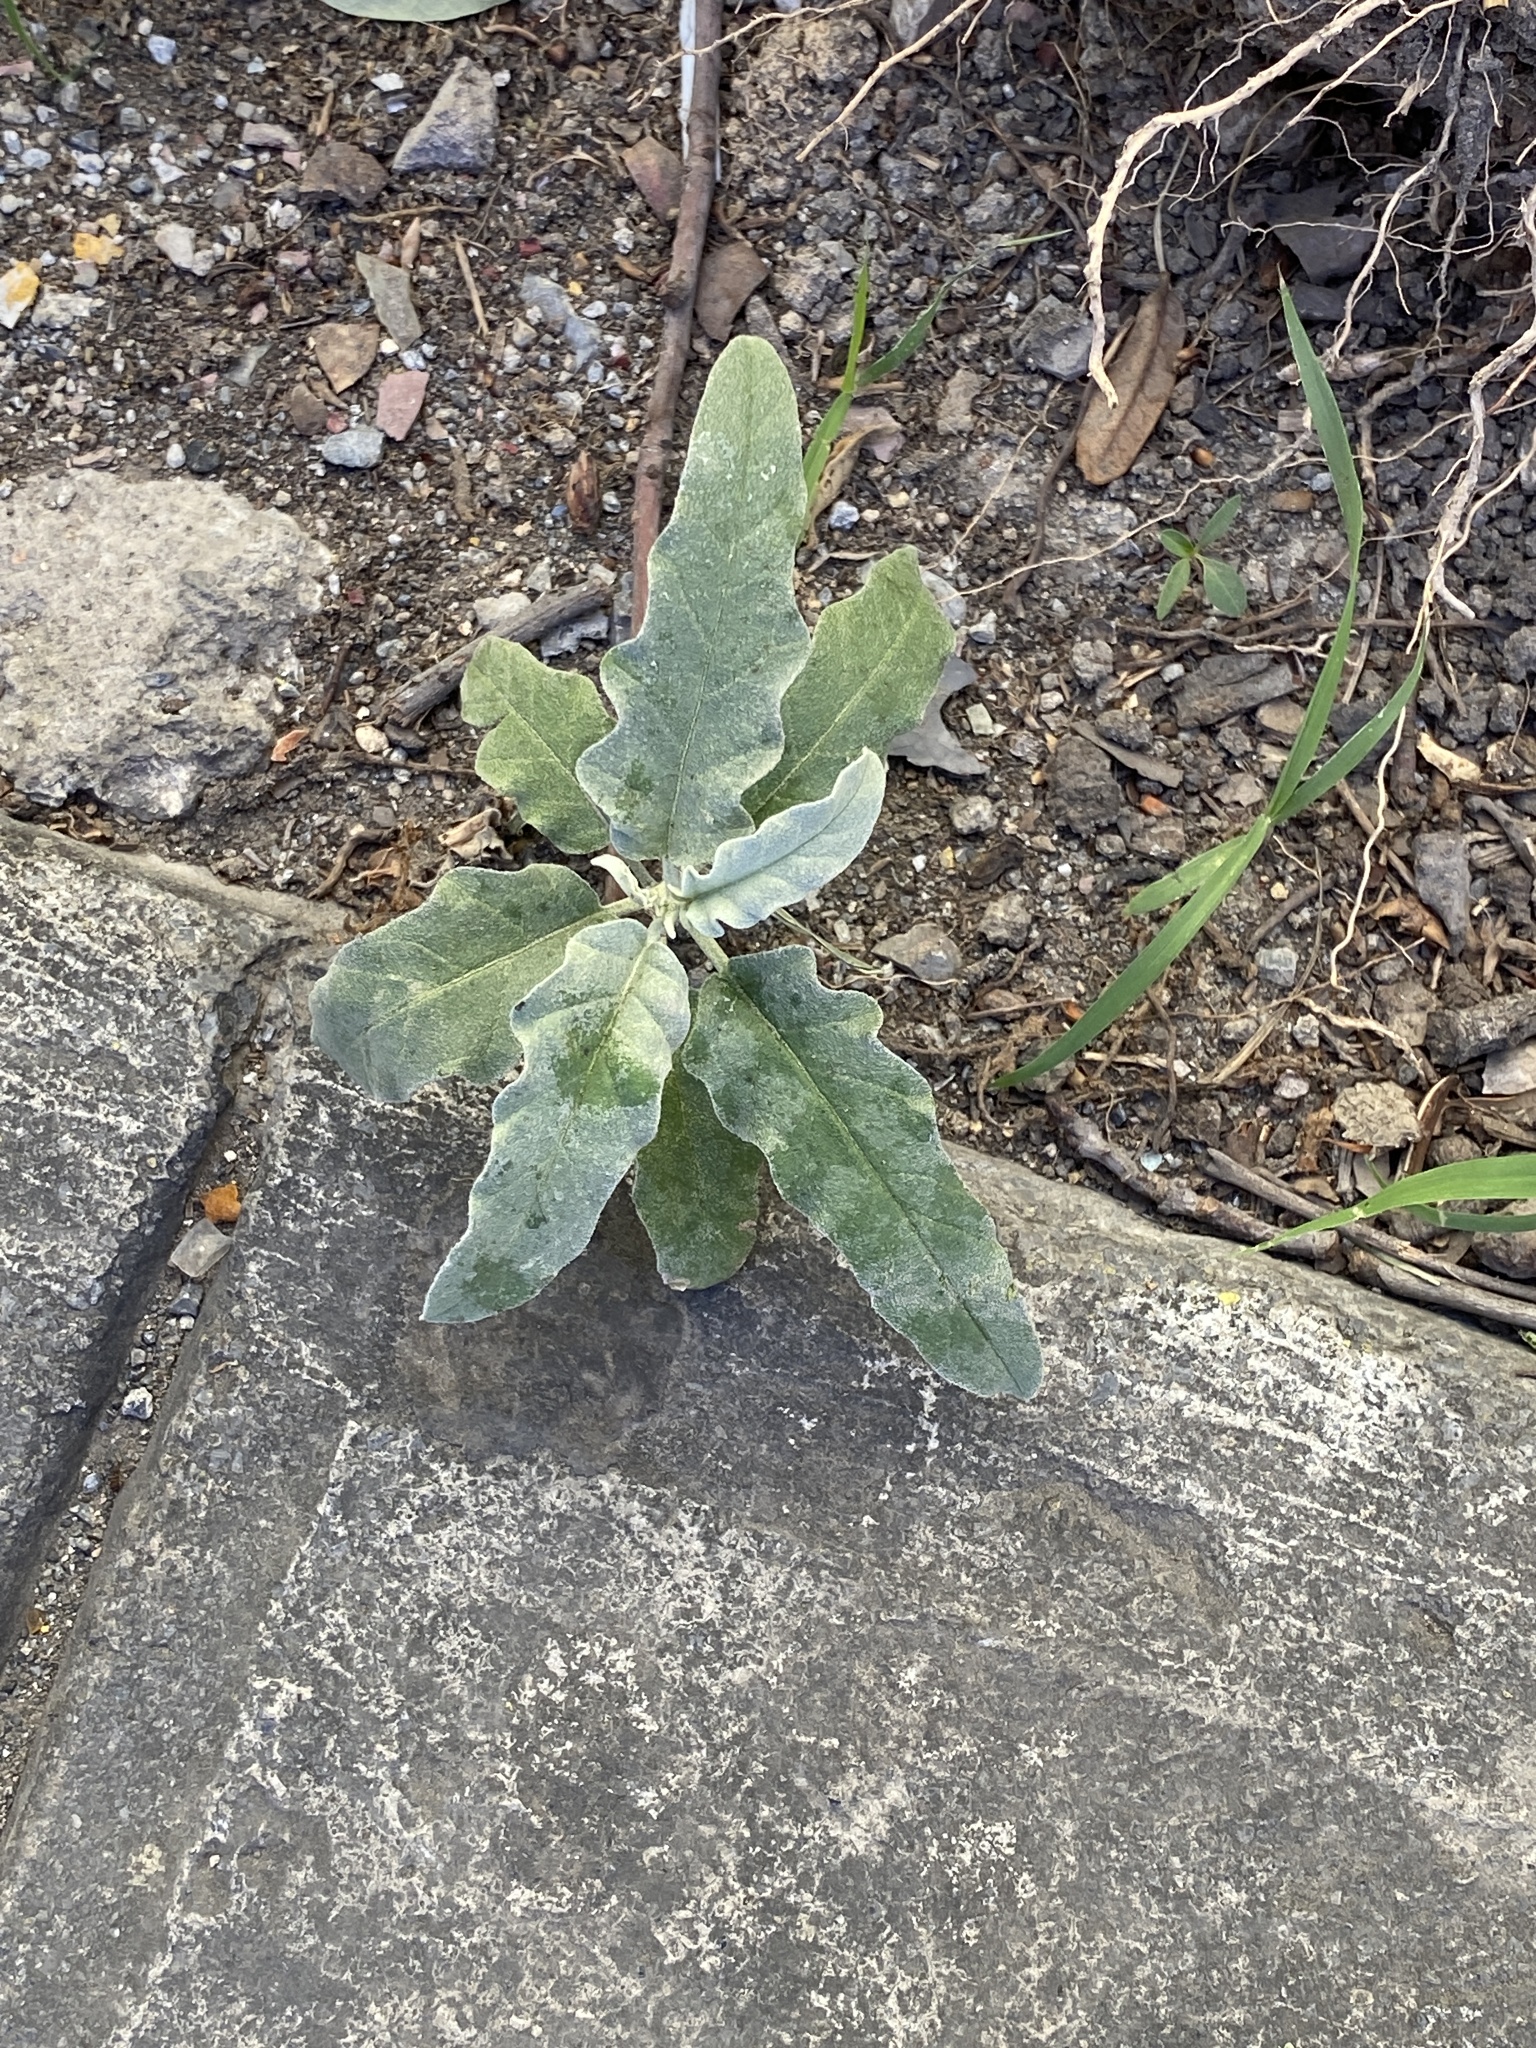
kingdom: Plantae
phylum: Tracheophyta
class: Magnoliopsida
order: Solanales
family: Solanaceae
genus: Solanum
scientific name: Solanum elaeagnifolium
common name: Silverleaf nightshade
